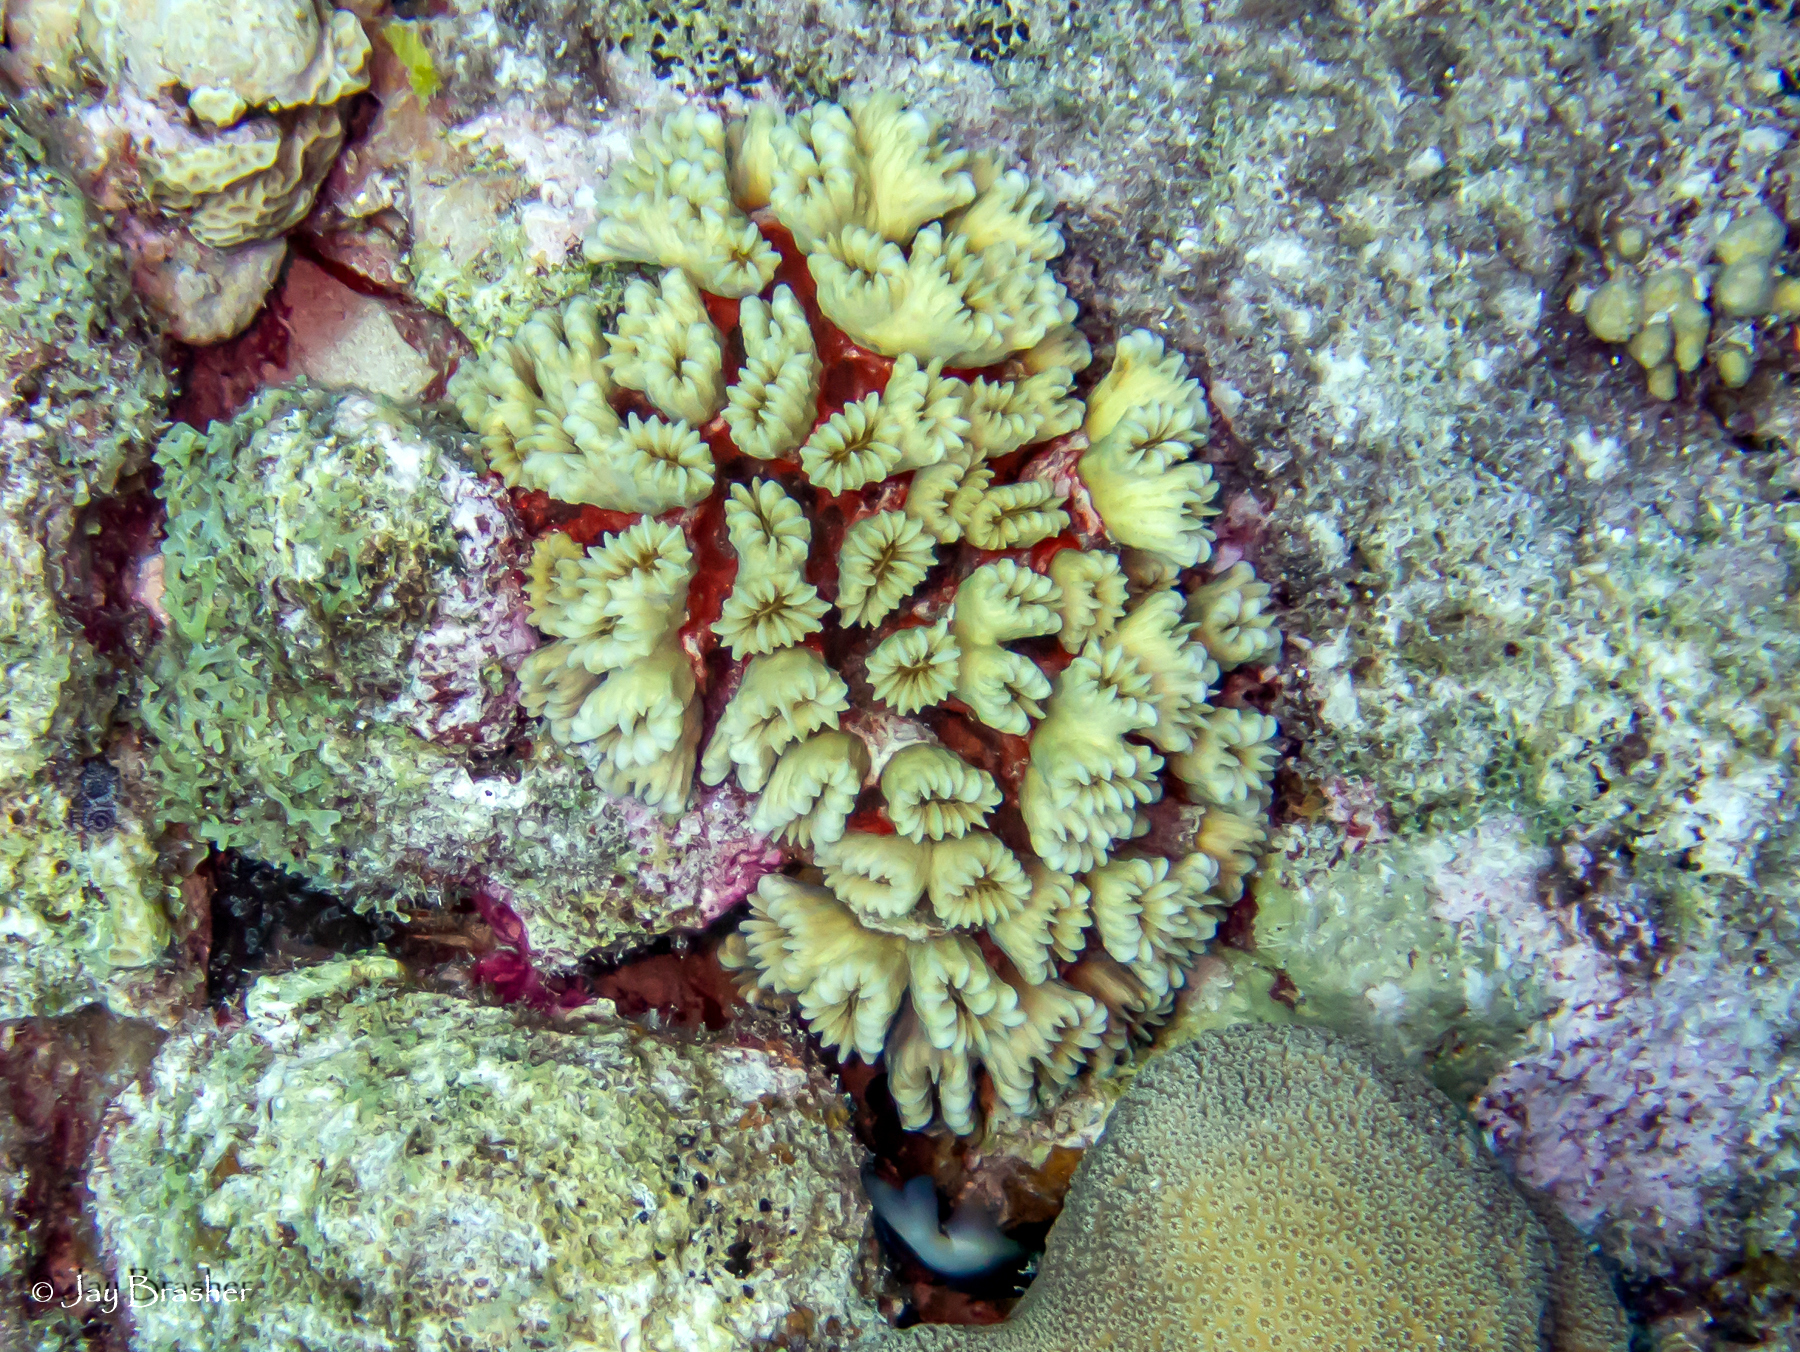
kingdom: Animalia
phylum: Cnidaria
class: Anthozoa
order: Scleractinia
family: Meandrinidae
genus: Eusmilia
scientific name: Eusmilia fastigiata
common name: Smooth flower coral
